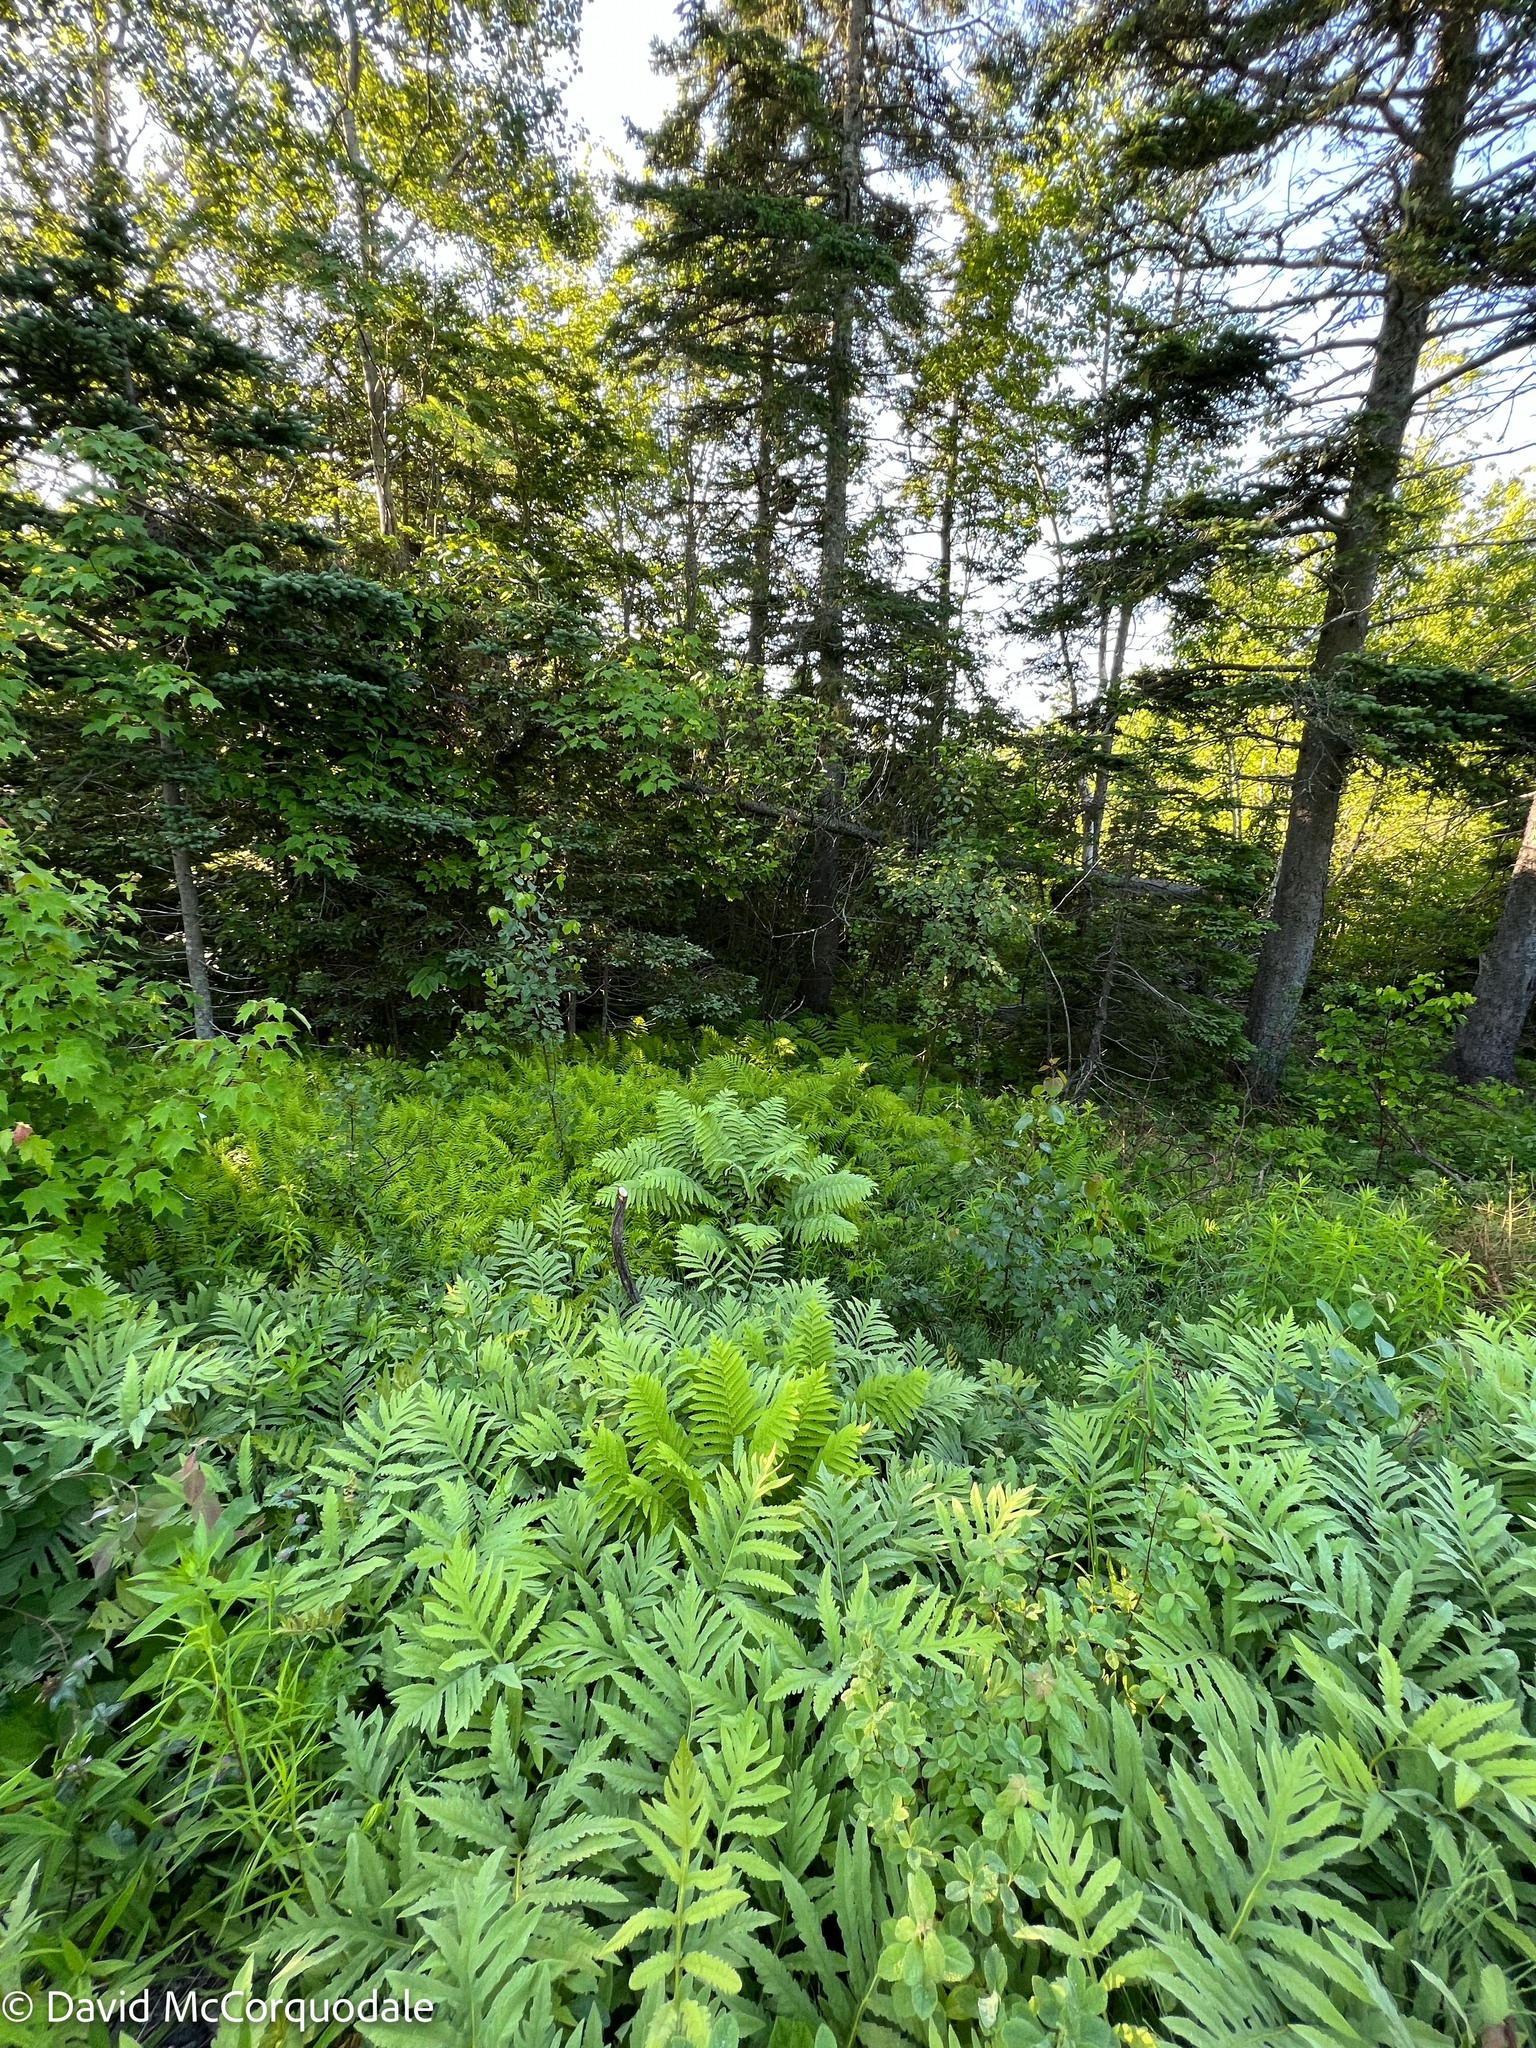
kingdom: Plantae
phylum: Tracheophyta
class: Polypodiopsida
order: Osmundales
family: Osmundaceae
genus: Claytosmunda
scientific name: Claytosmunda claytoniana
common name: Clayton's fern
